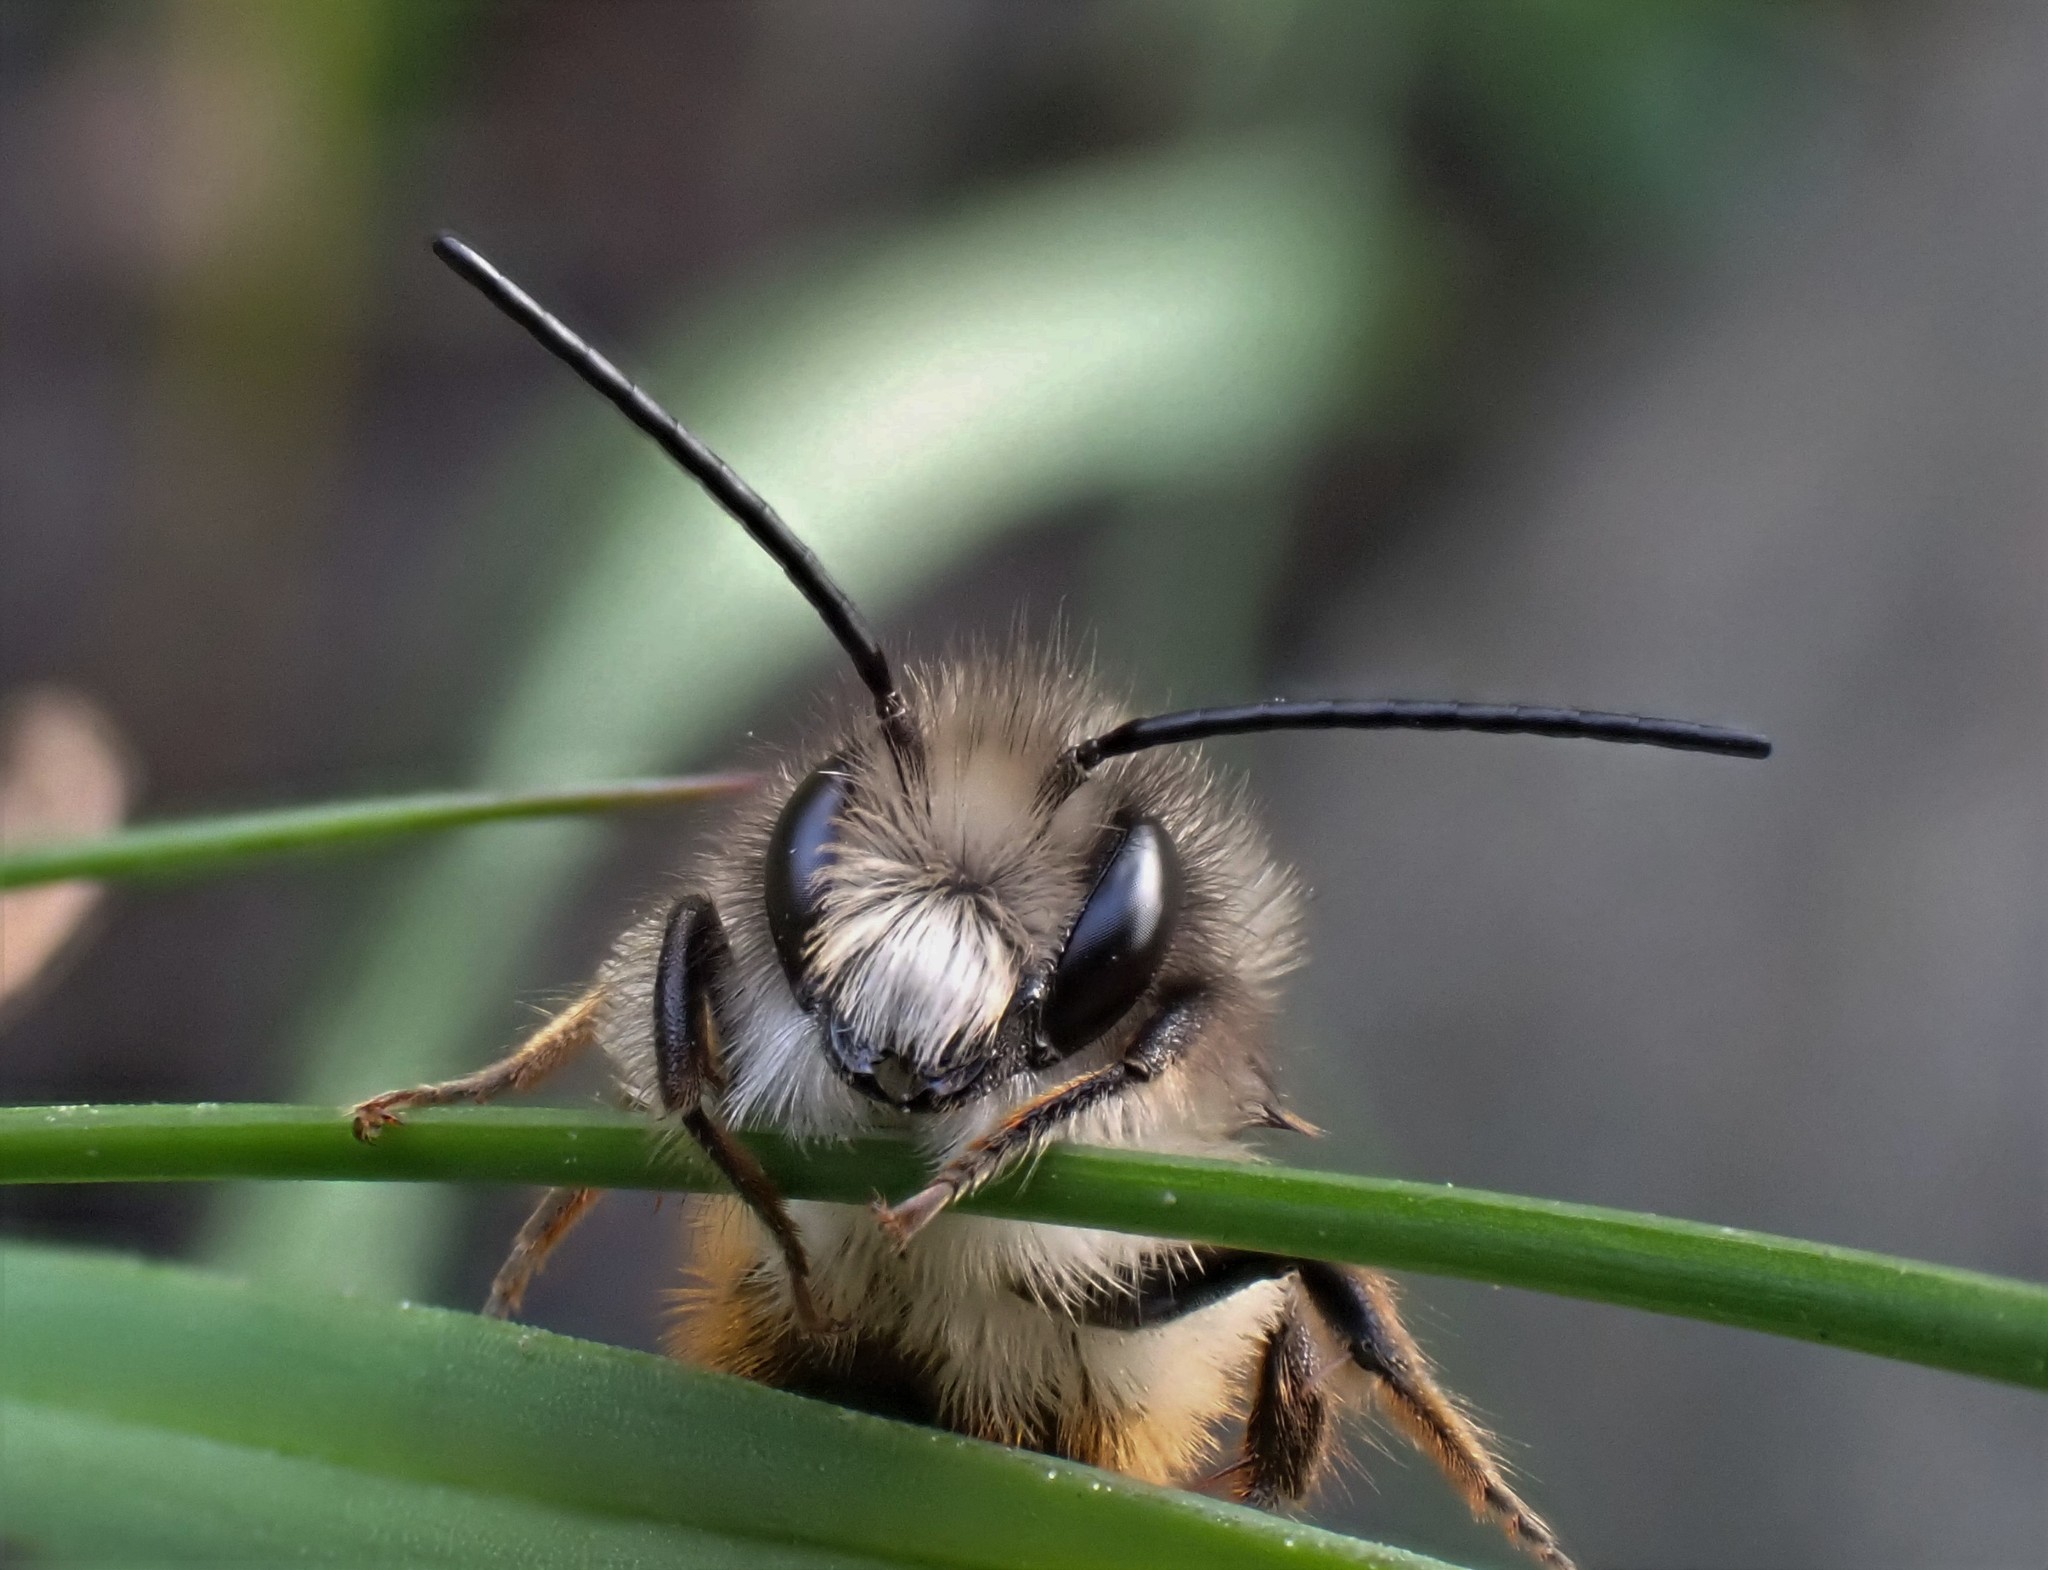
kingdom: Animalia
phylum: Arthropoda
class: Insecta
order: Hymenoptera
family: Megachilidae
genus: Osmia
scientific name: Osmia bicornis
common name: Red mason bee
